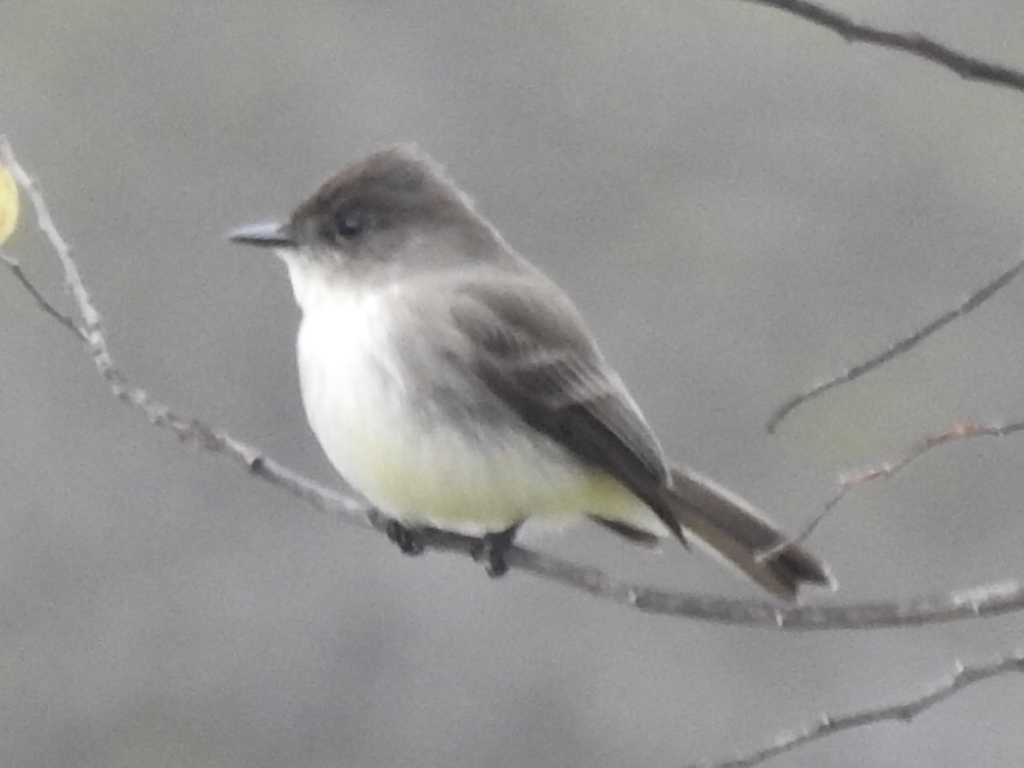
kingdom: Animalia
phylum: Chordata
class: Aves
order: Passeriformes
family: Tyrannidae
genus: Sayornis
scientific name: Sayornis phoebe
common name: Eastern phoebe
